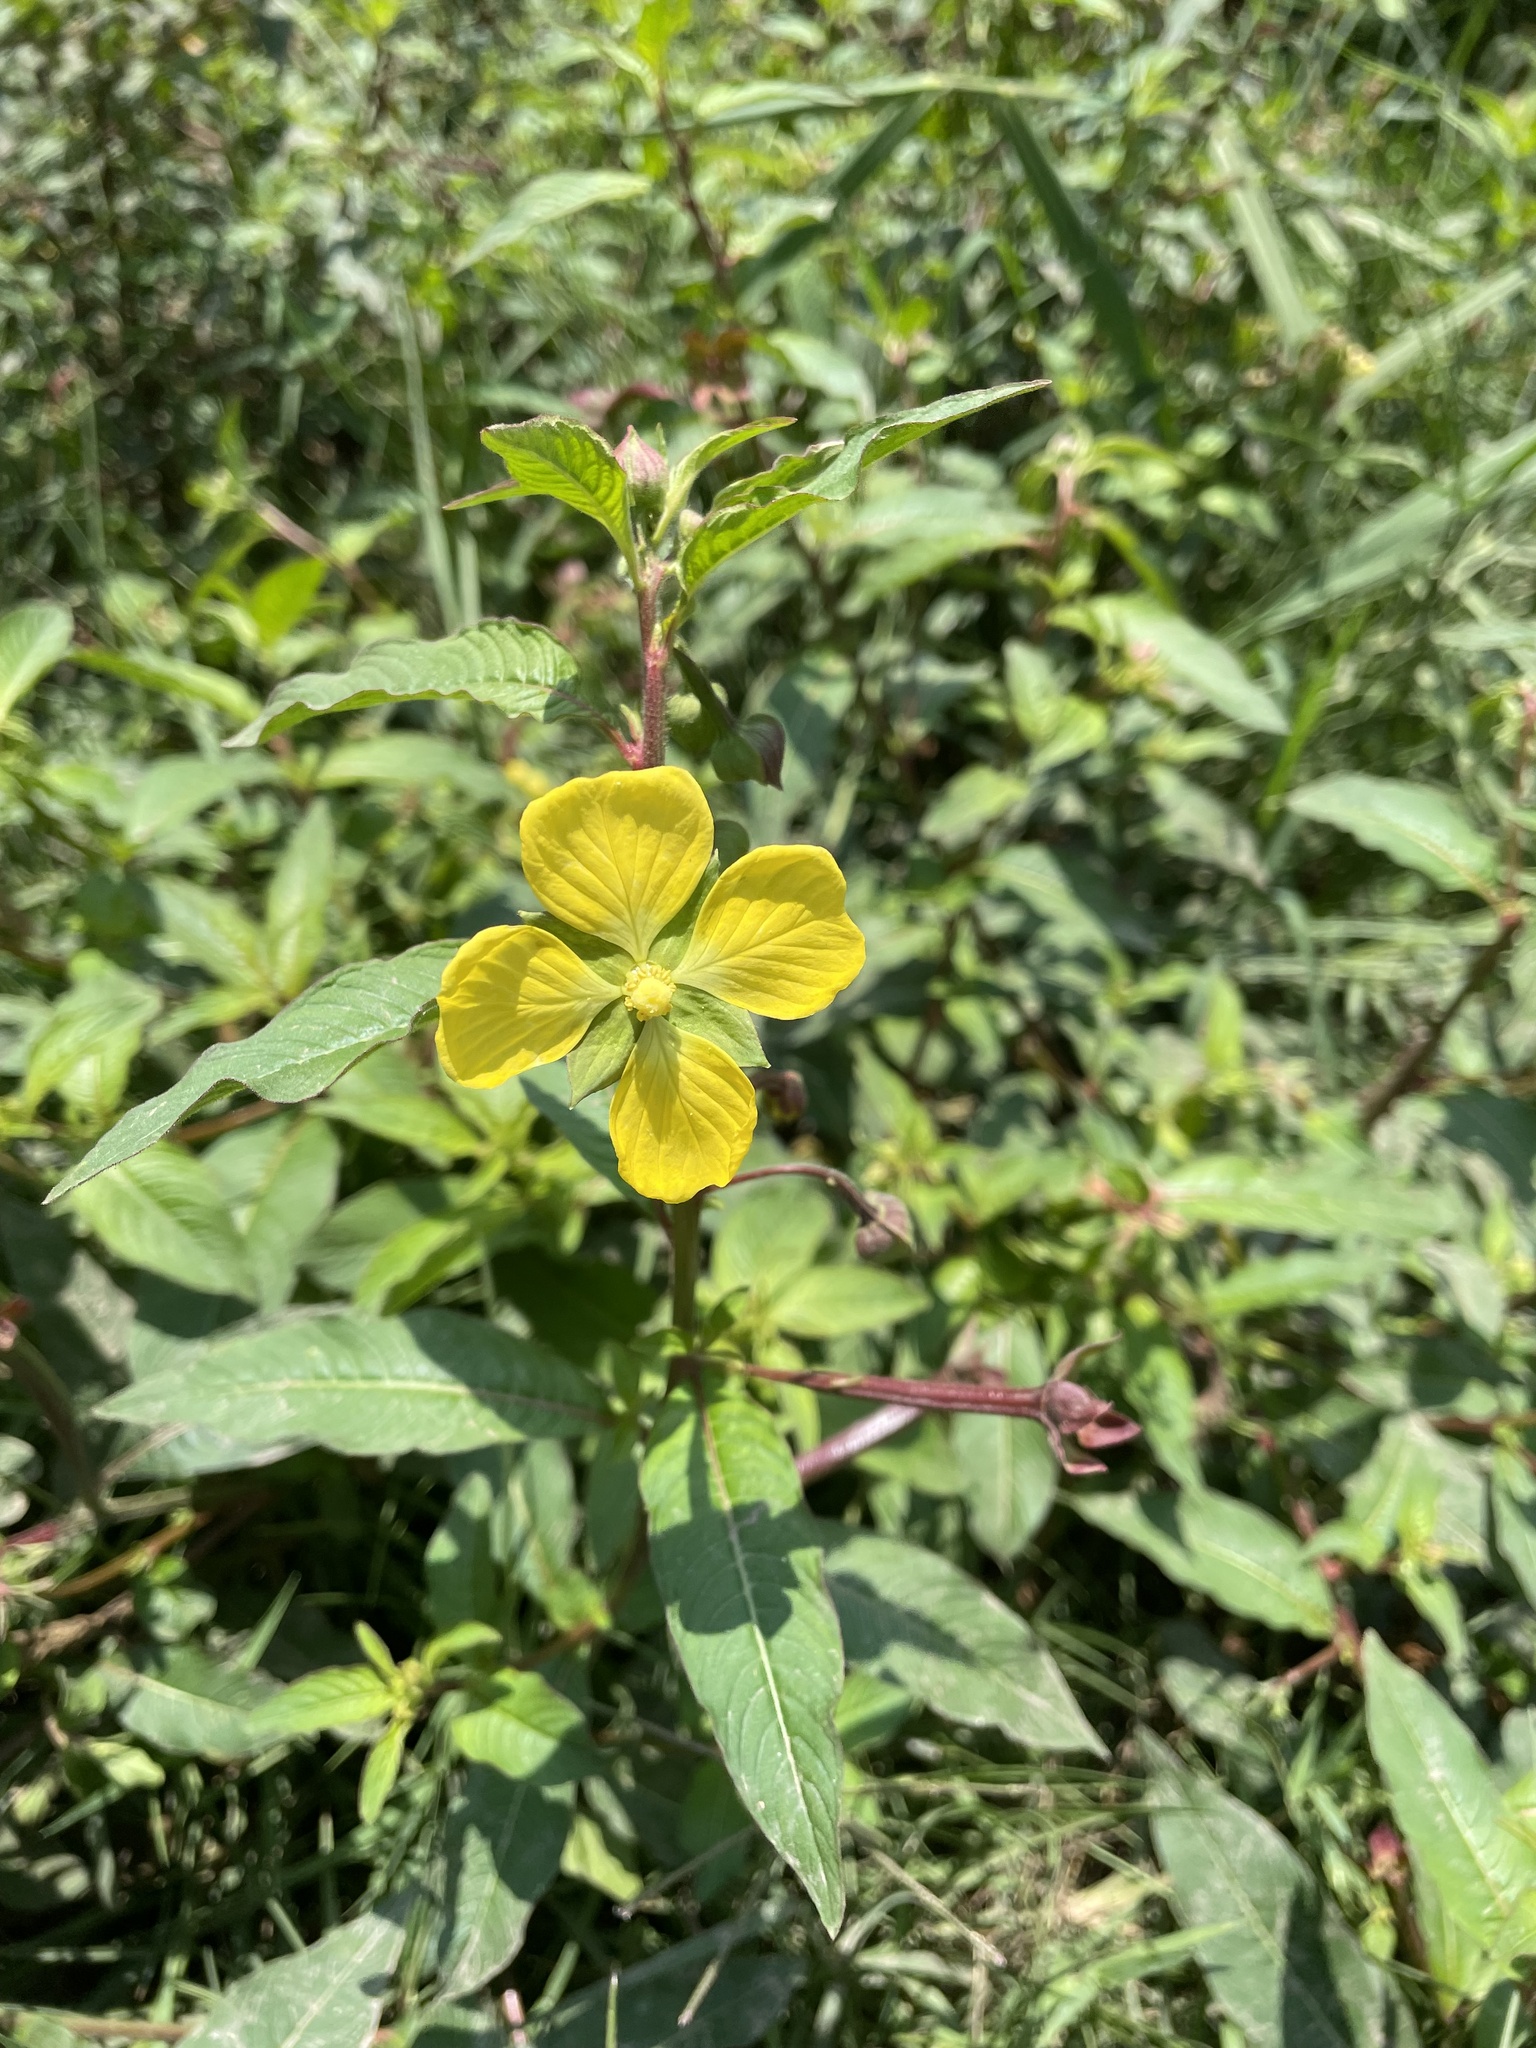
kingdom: Plantae
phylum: Tracheophyta
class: Magnoliopsida
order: Myrtales
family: Onagraceae
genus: Ludwigia
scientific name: Ludwigia octovalvis
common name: Water-primrose
